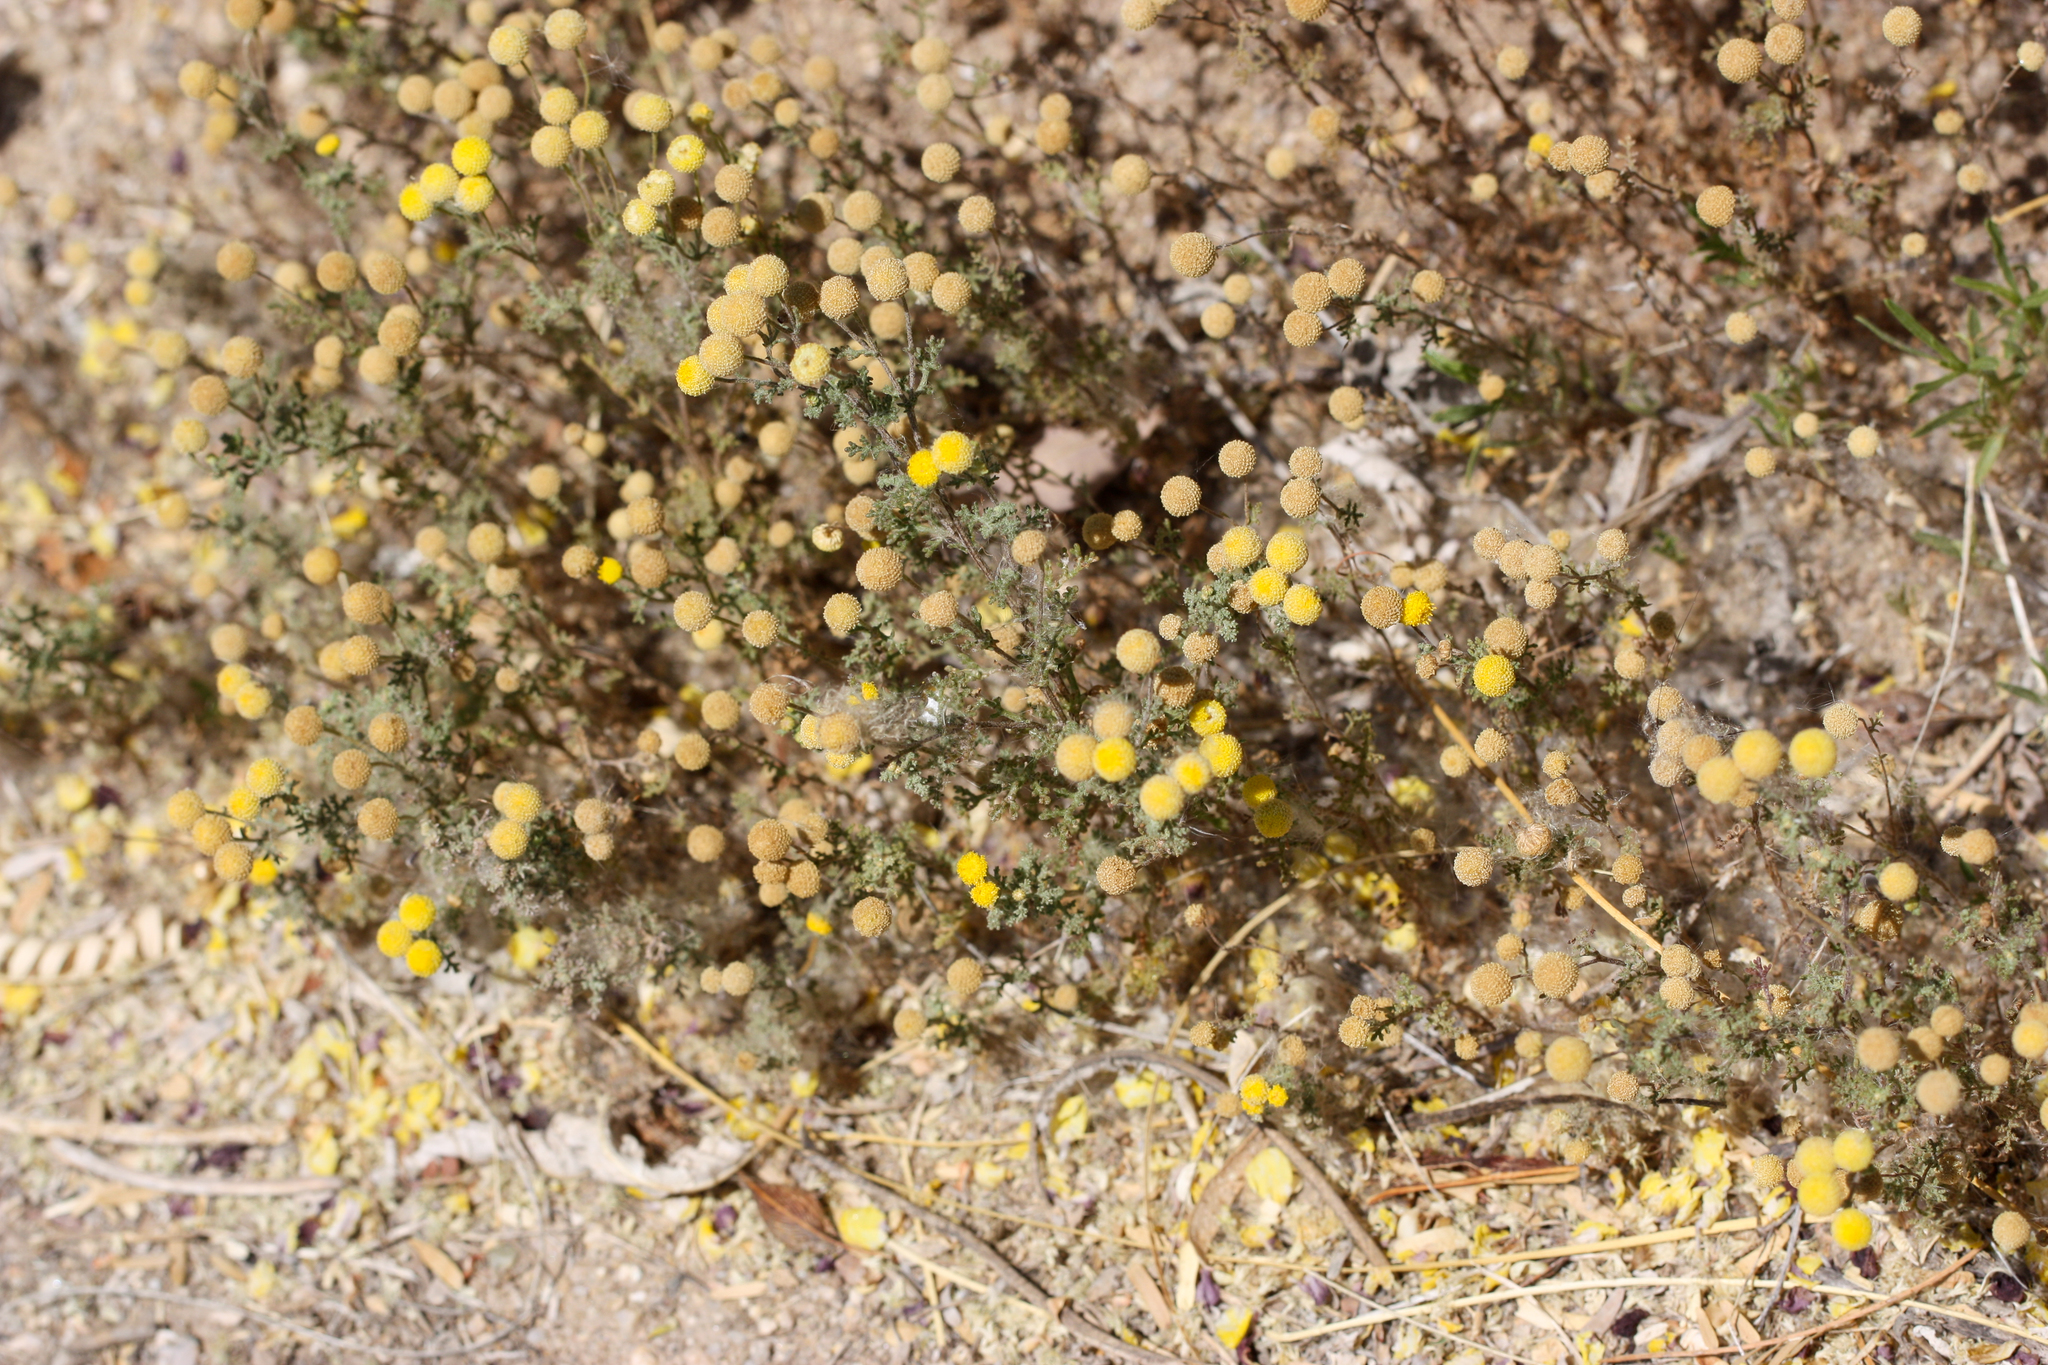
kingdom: Plantae
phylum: Tracheophyta
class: Magnoliopsida
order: Asterales
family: Asteraceae
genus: Oncosiphon
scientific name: Oncosiphon pilulifer
